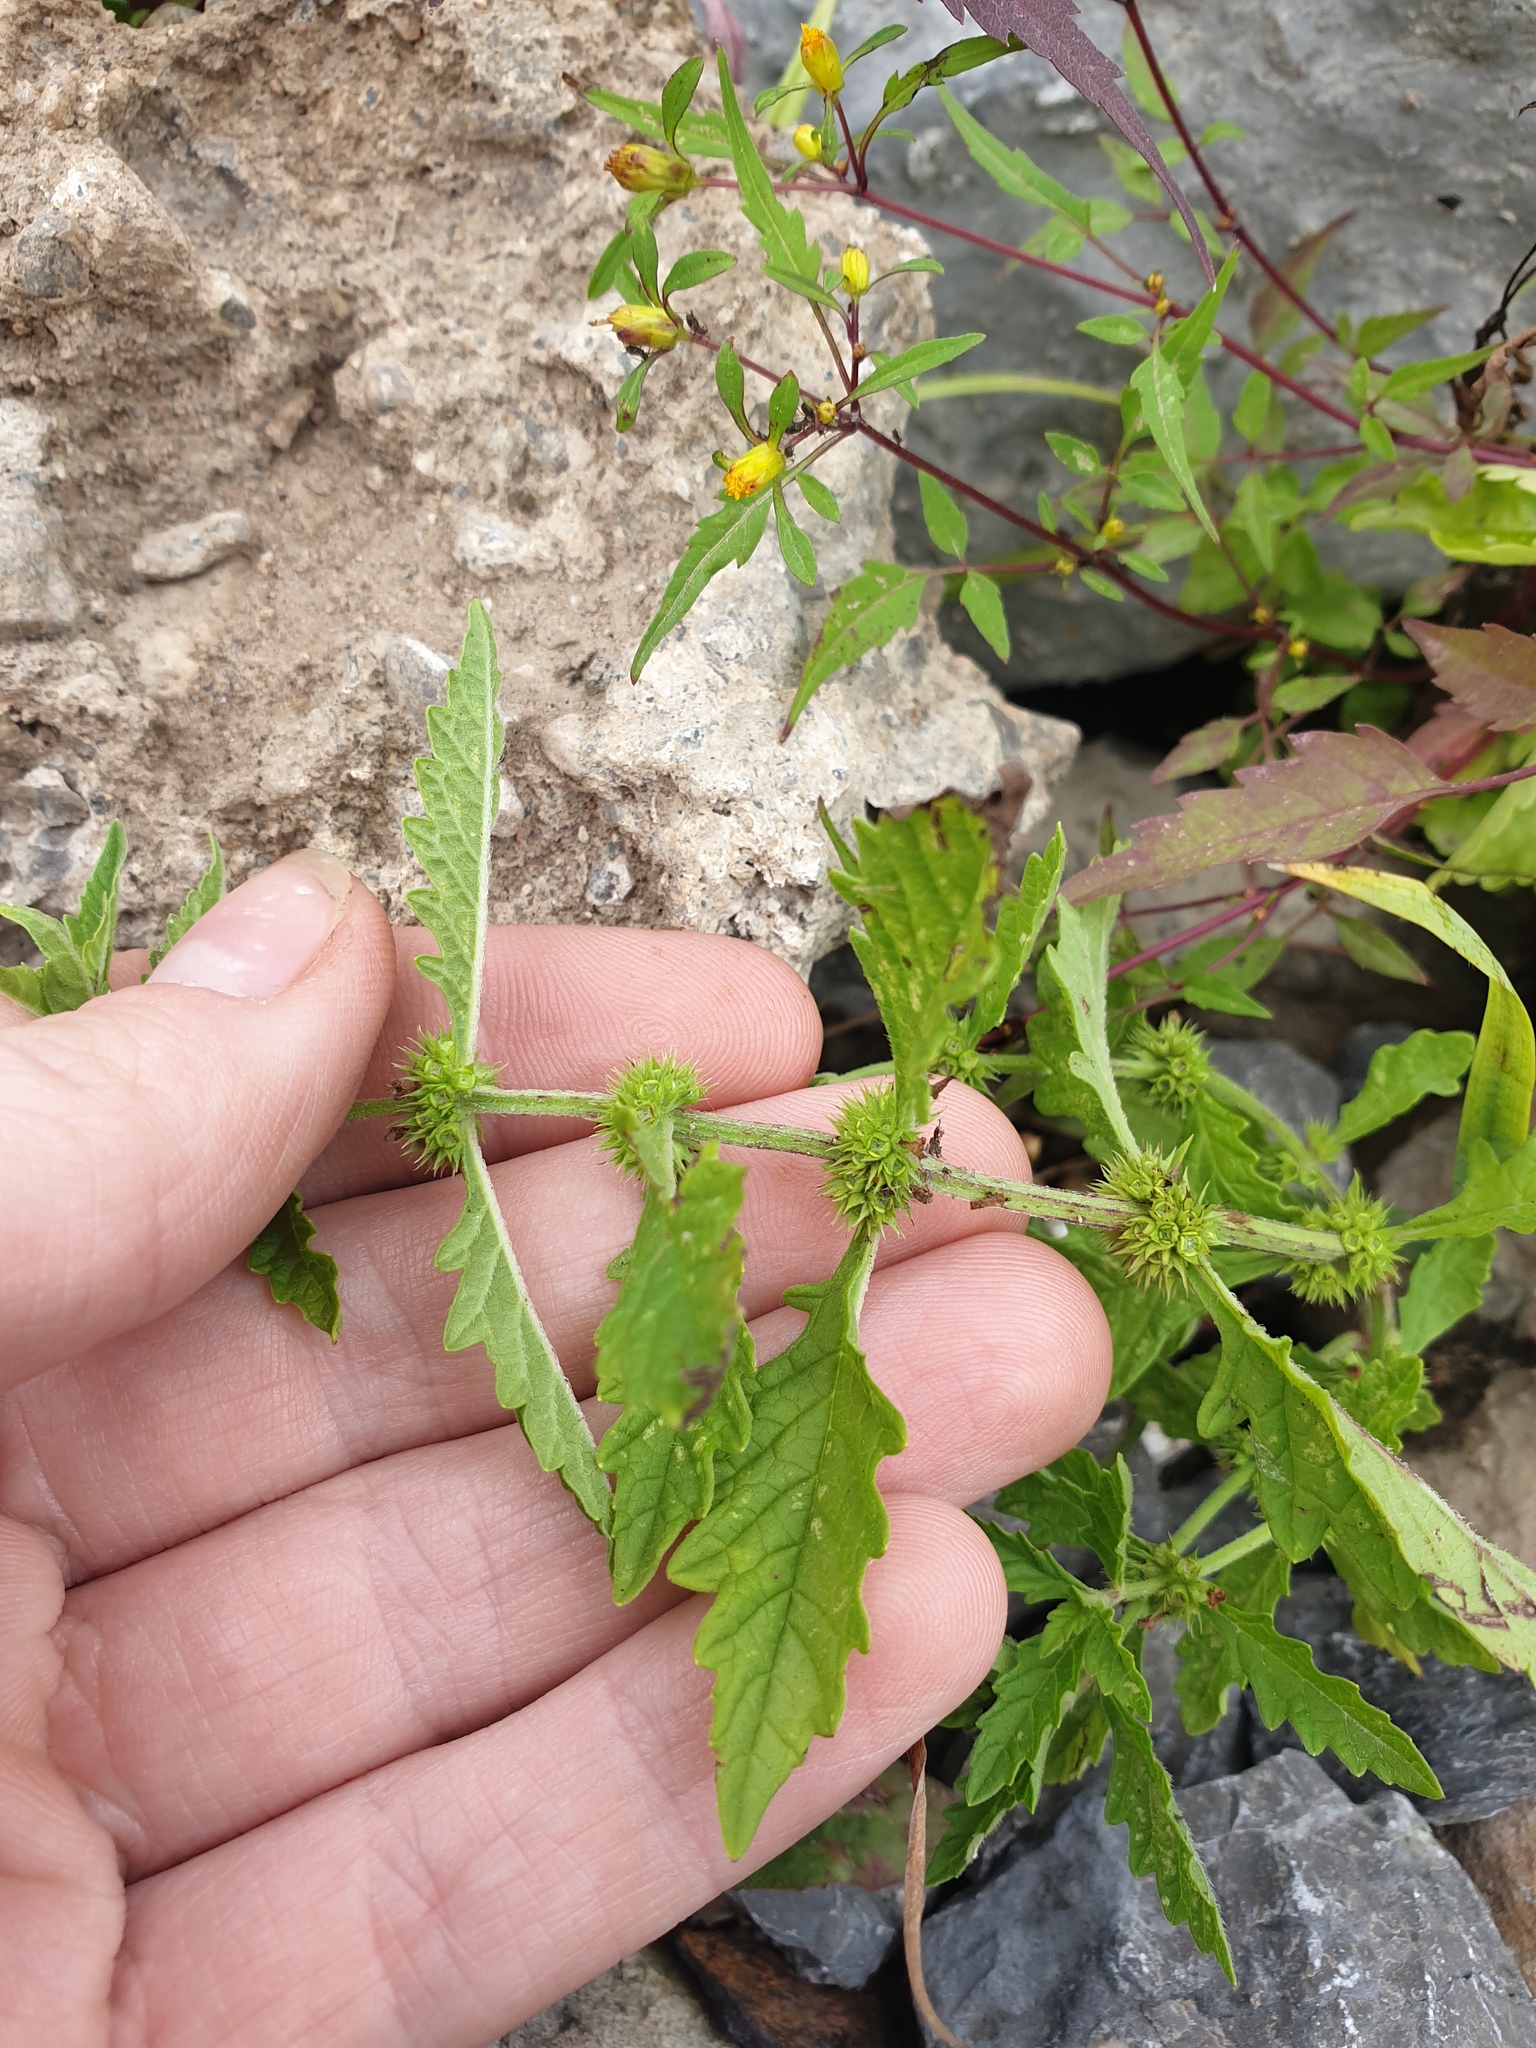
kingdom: Plantae
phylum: Tracheophyta
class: Magnoliopsida
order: Lamiales
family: Lamiaceae
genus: Lycopus
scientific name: Lycopus europaeus
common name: European bugleweed
